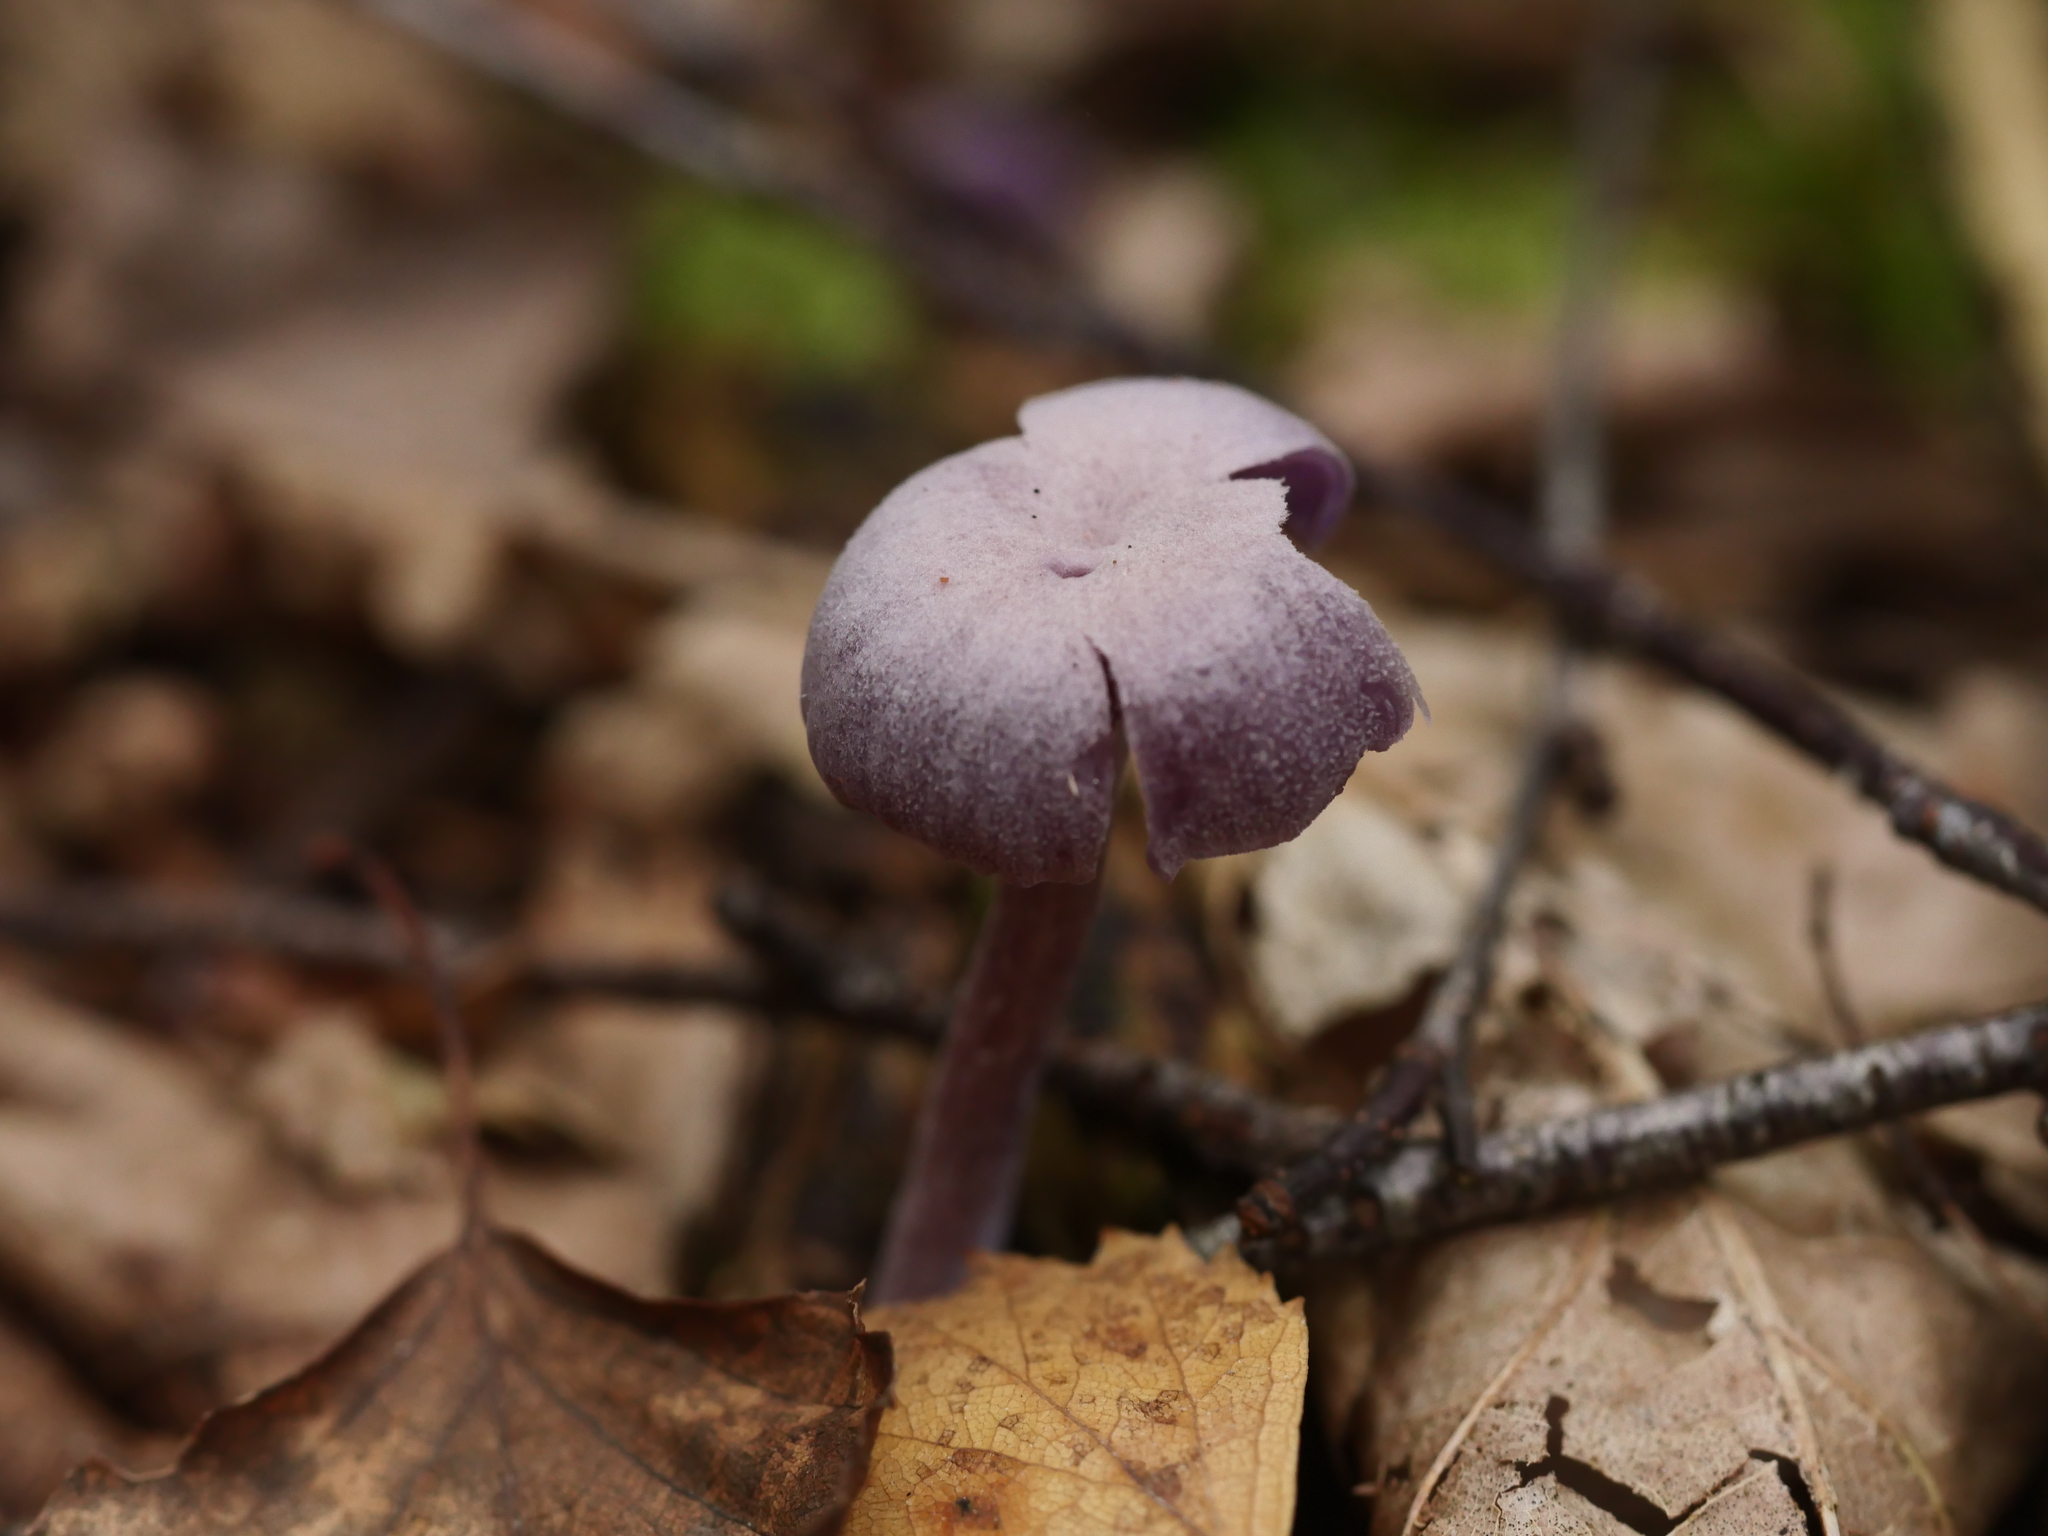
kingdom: Fungi
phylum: Basidiomycota
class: Agaricomycetes
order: Agaricales
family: Hydnangiaceae
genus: Laccaria
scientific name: Laccaria amethystina
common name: Amethyst deceiver
